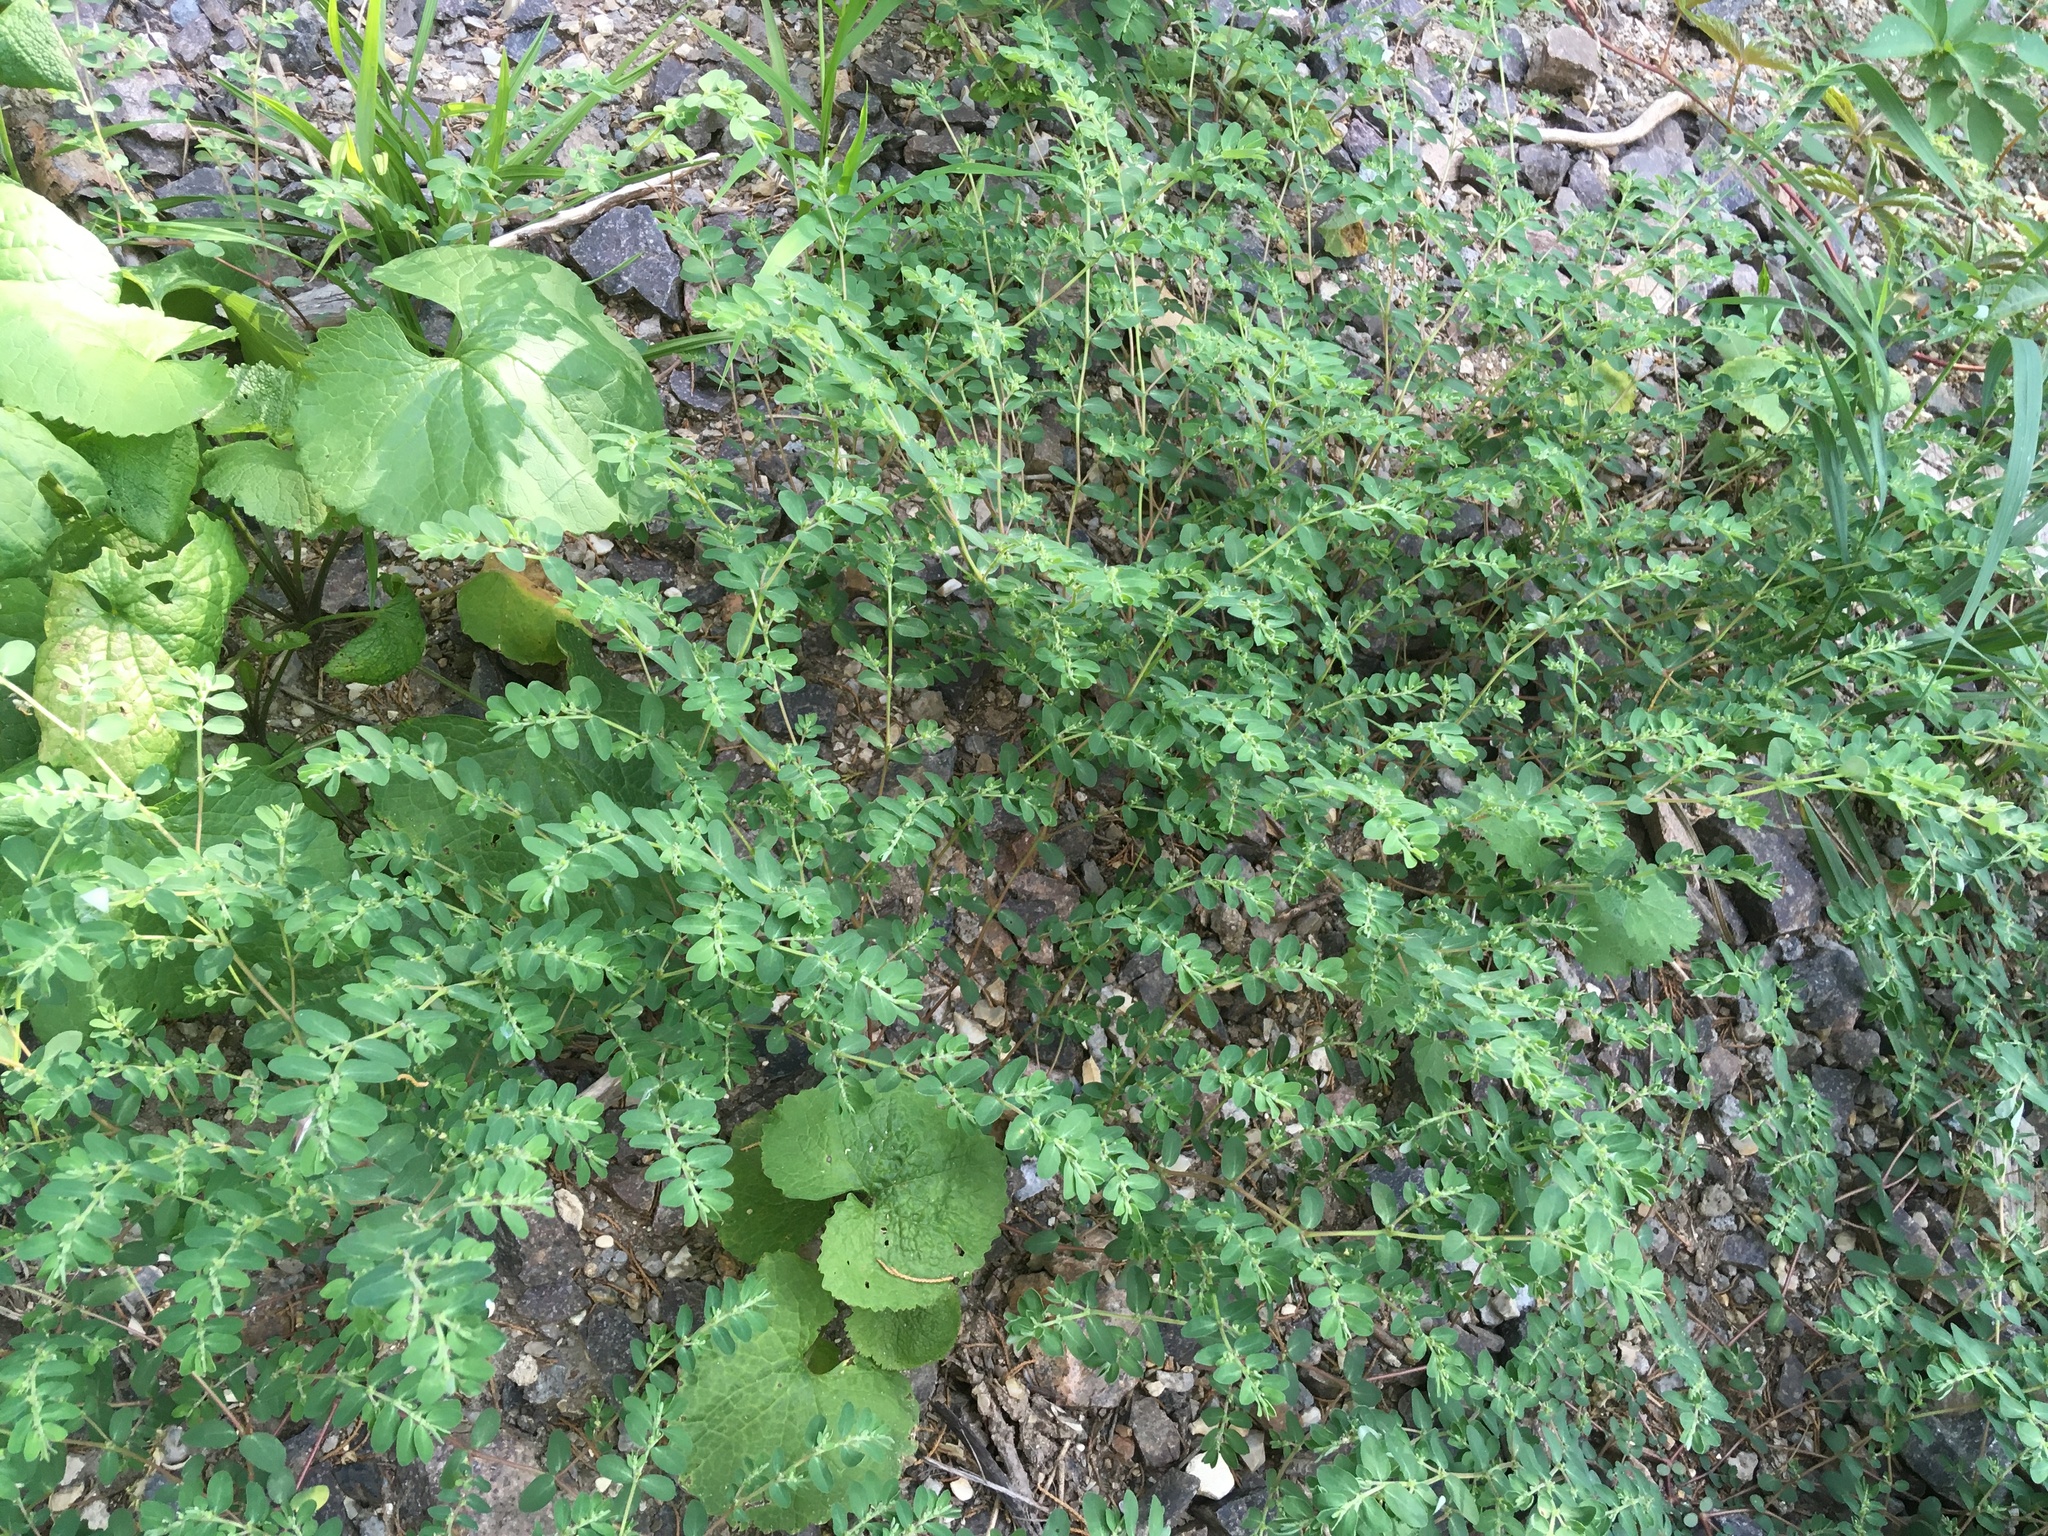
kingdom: Plantae
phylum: Tracheophyta
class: Magnoliopsida
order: Malpighiales
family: Euphorbiaceae
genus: Euphorbia
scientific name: Euphorbia prostrata
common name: Prostrate sandmat
